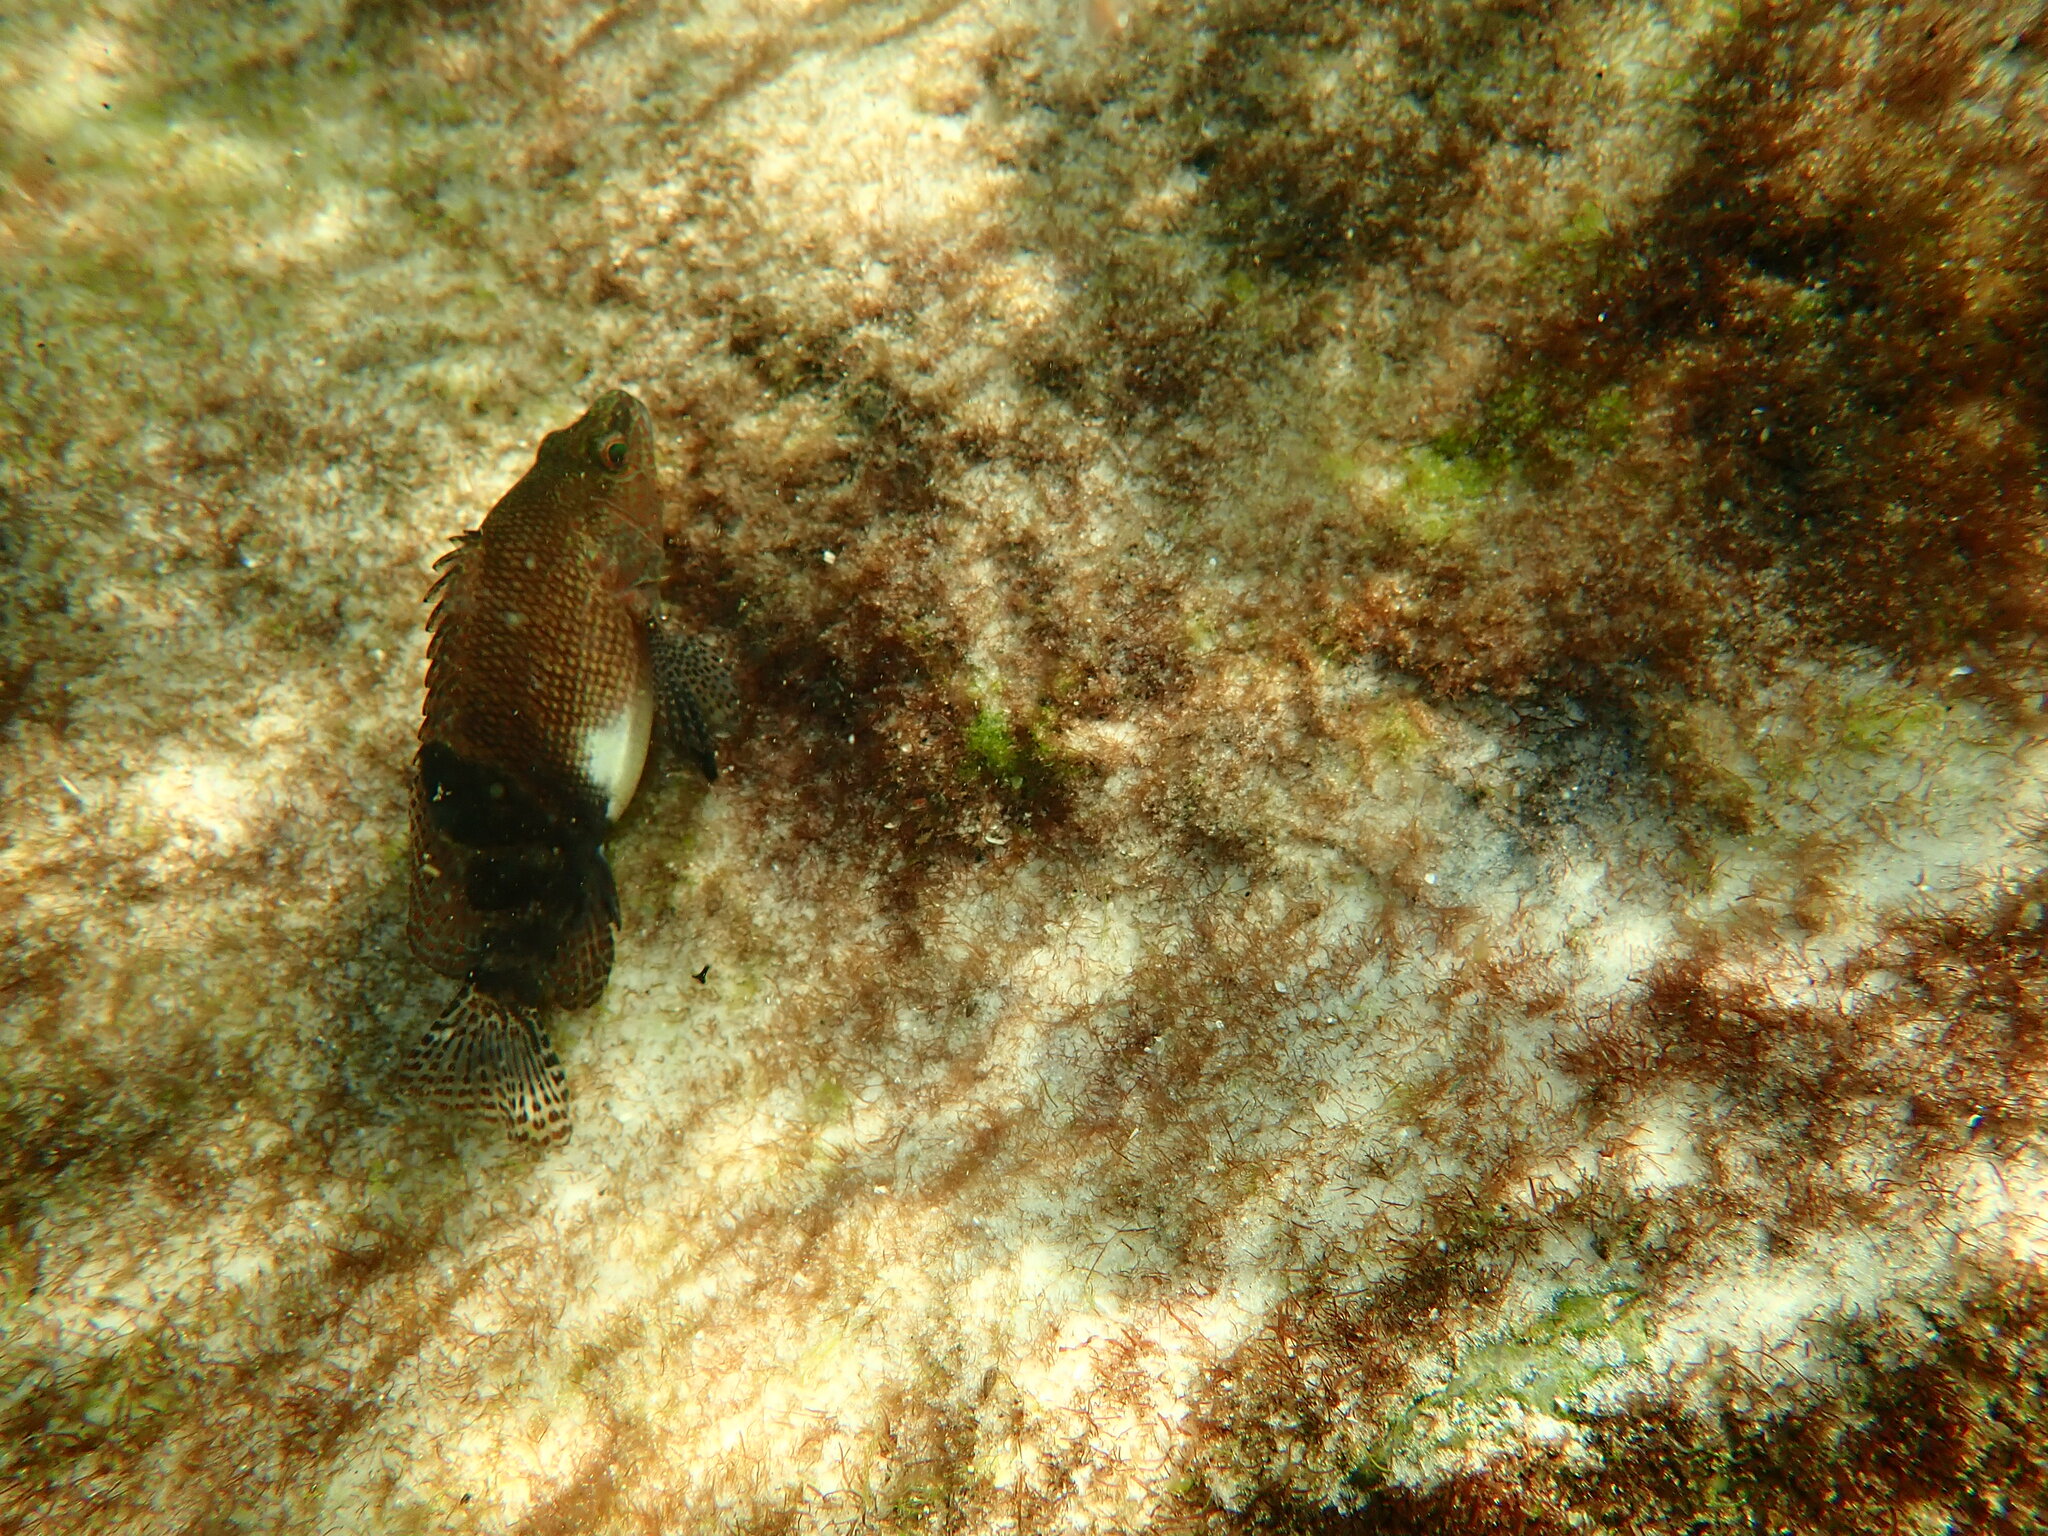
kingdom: Animalia
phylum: Chordata
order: Perciformes
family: Serranidae
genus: Serranus
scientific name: Serranus subligarius
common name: Belted sandfish
